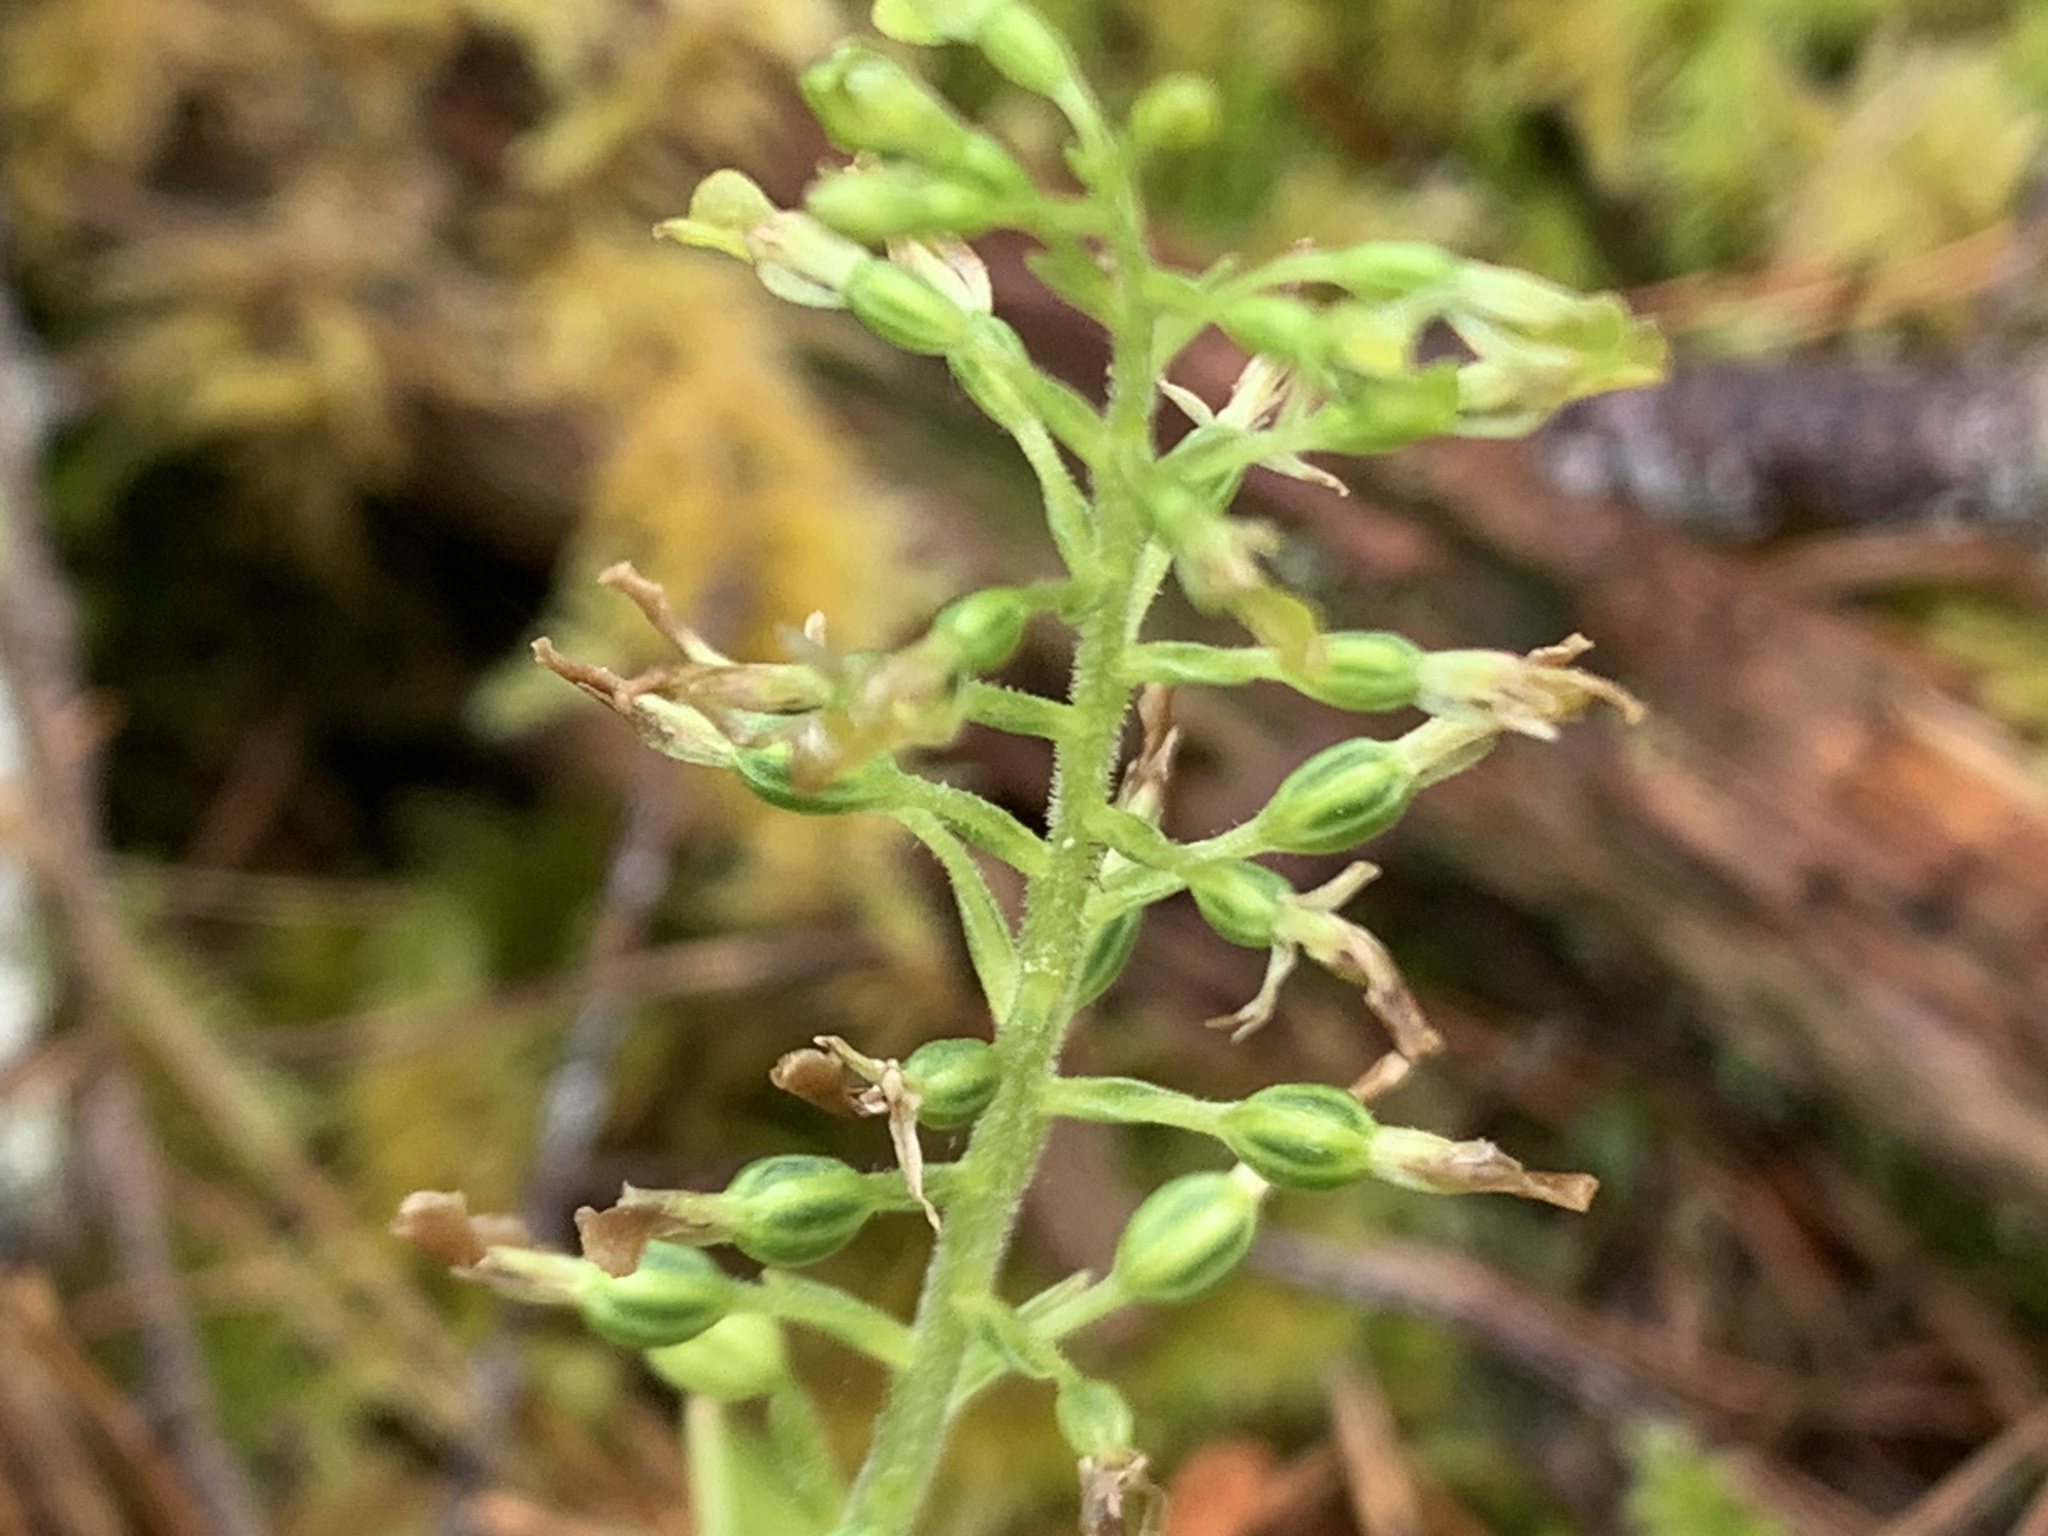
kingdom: Plantae
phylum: Tracheophyta
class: Liliopsida
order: Asparagales
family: Orchidaceae
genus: Neottia
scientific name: Neottia banksiana
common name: Northwestern twayblade
